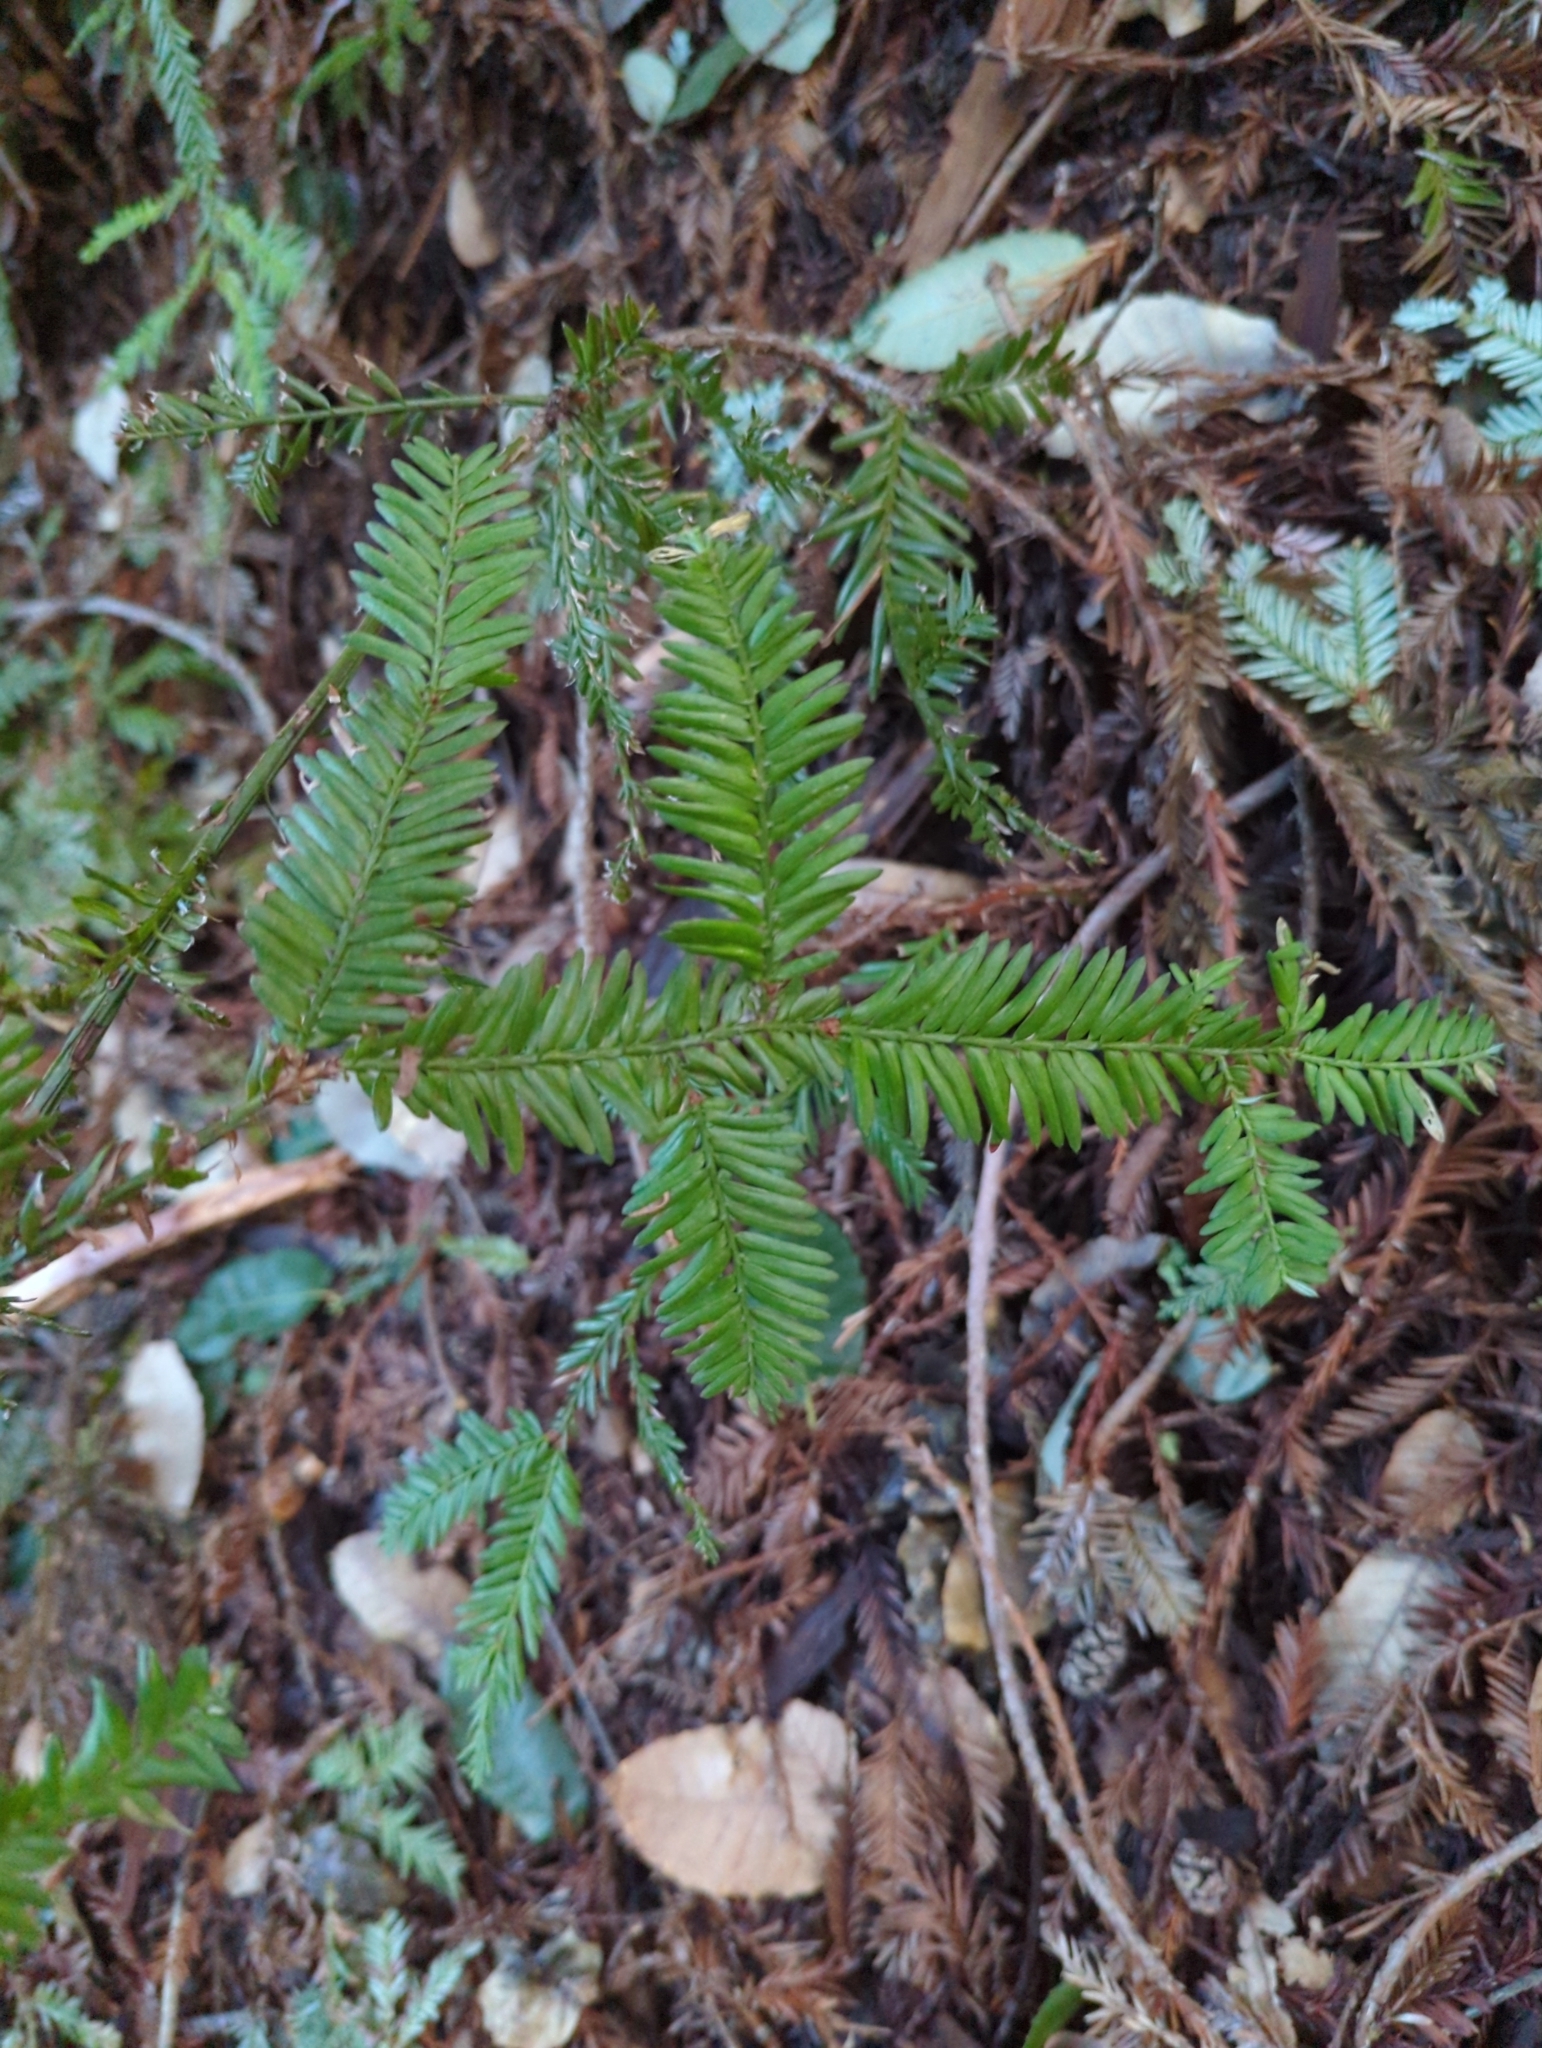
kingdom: Plantae
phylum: Tracheophyta
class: Pinopsida
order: Pinales
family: Cupressaceae
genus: Sequoia
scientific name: Sequoia sempervirens
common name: Coast redwood
